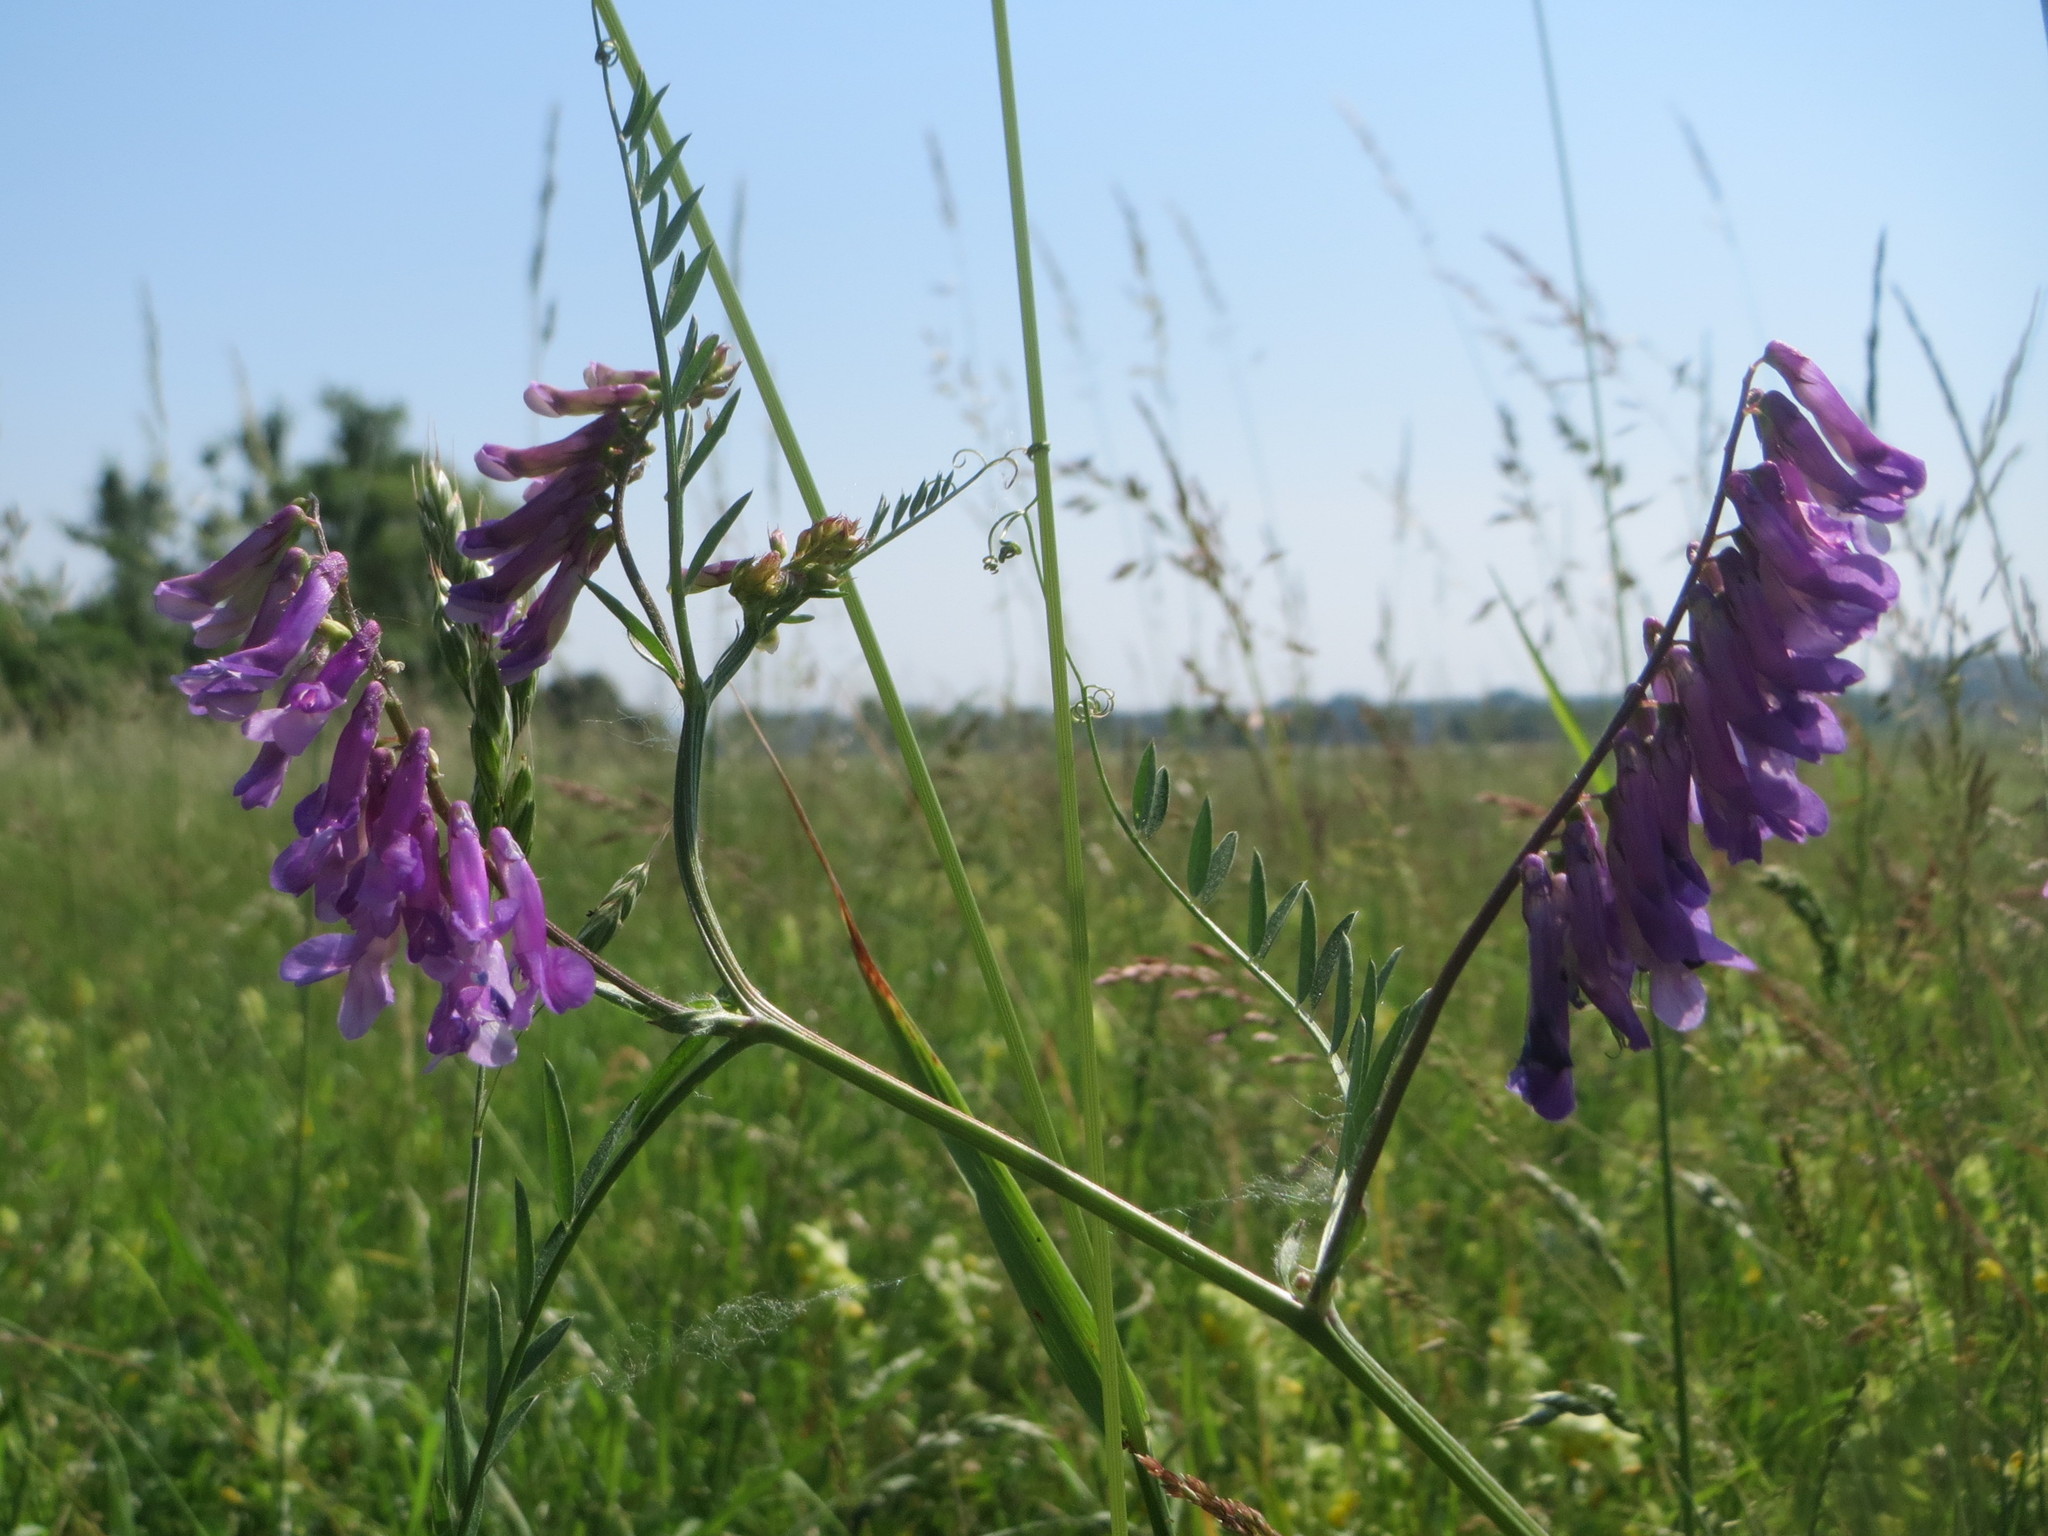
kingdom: Plantae
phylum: Tracheophyta
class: Magnoliopsida
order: Fabales
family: Fabaceae
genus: Vicia
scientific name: Vicia cracca
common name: Bird vetch
